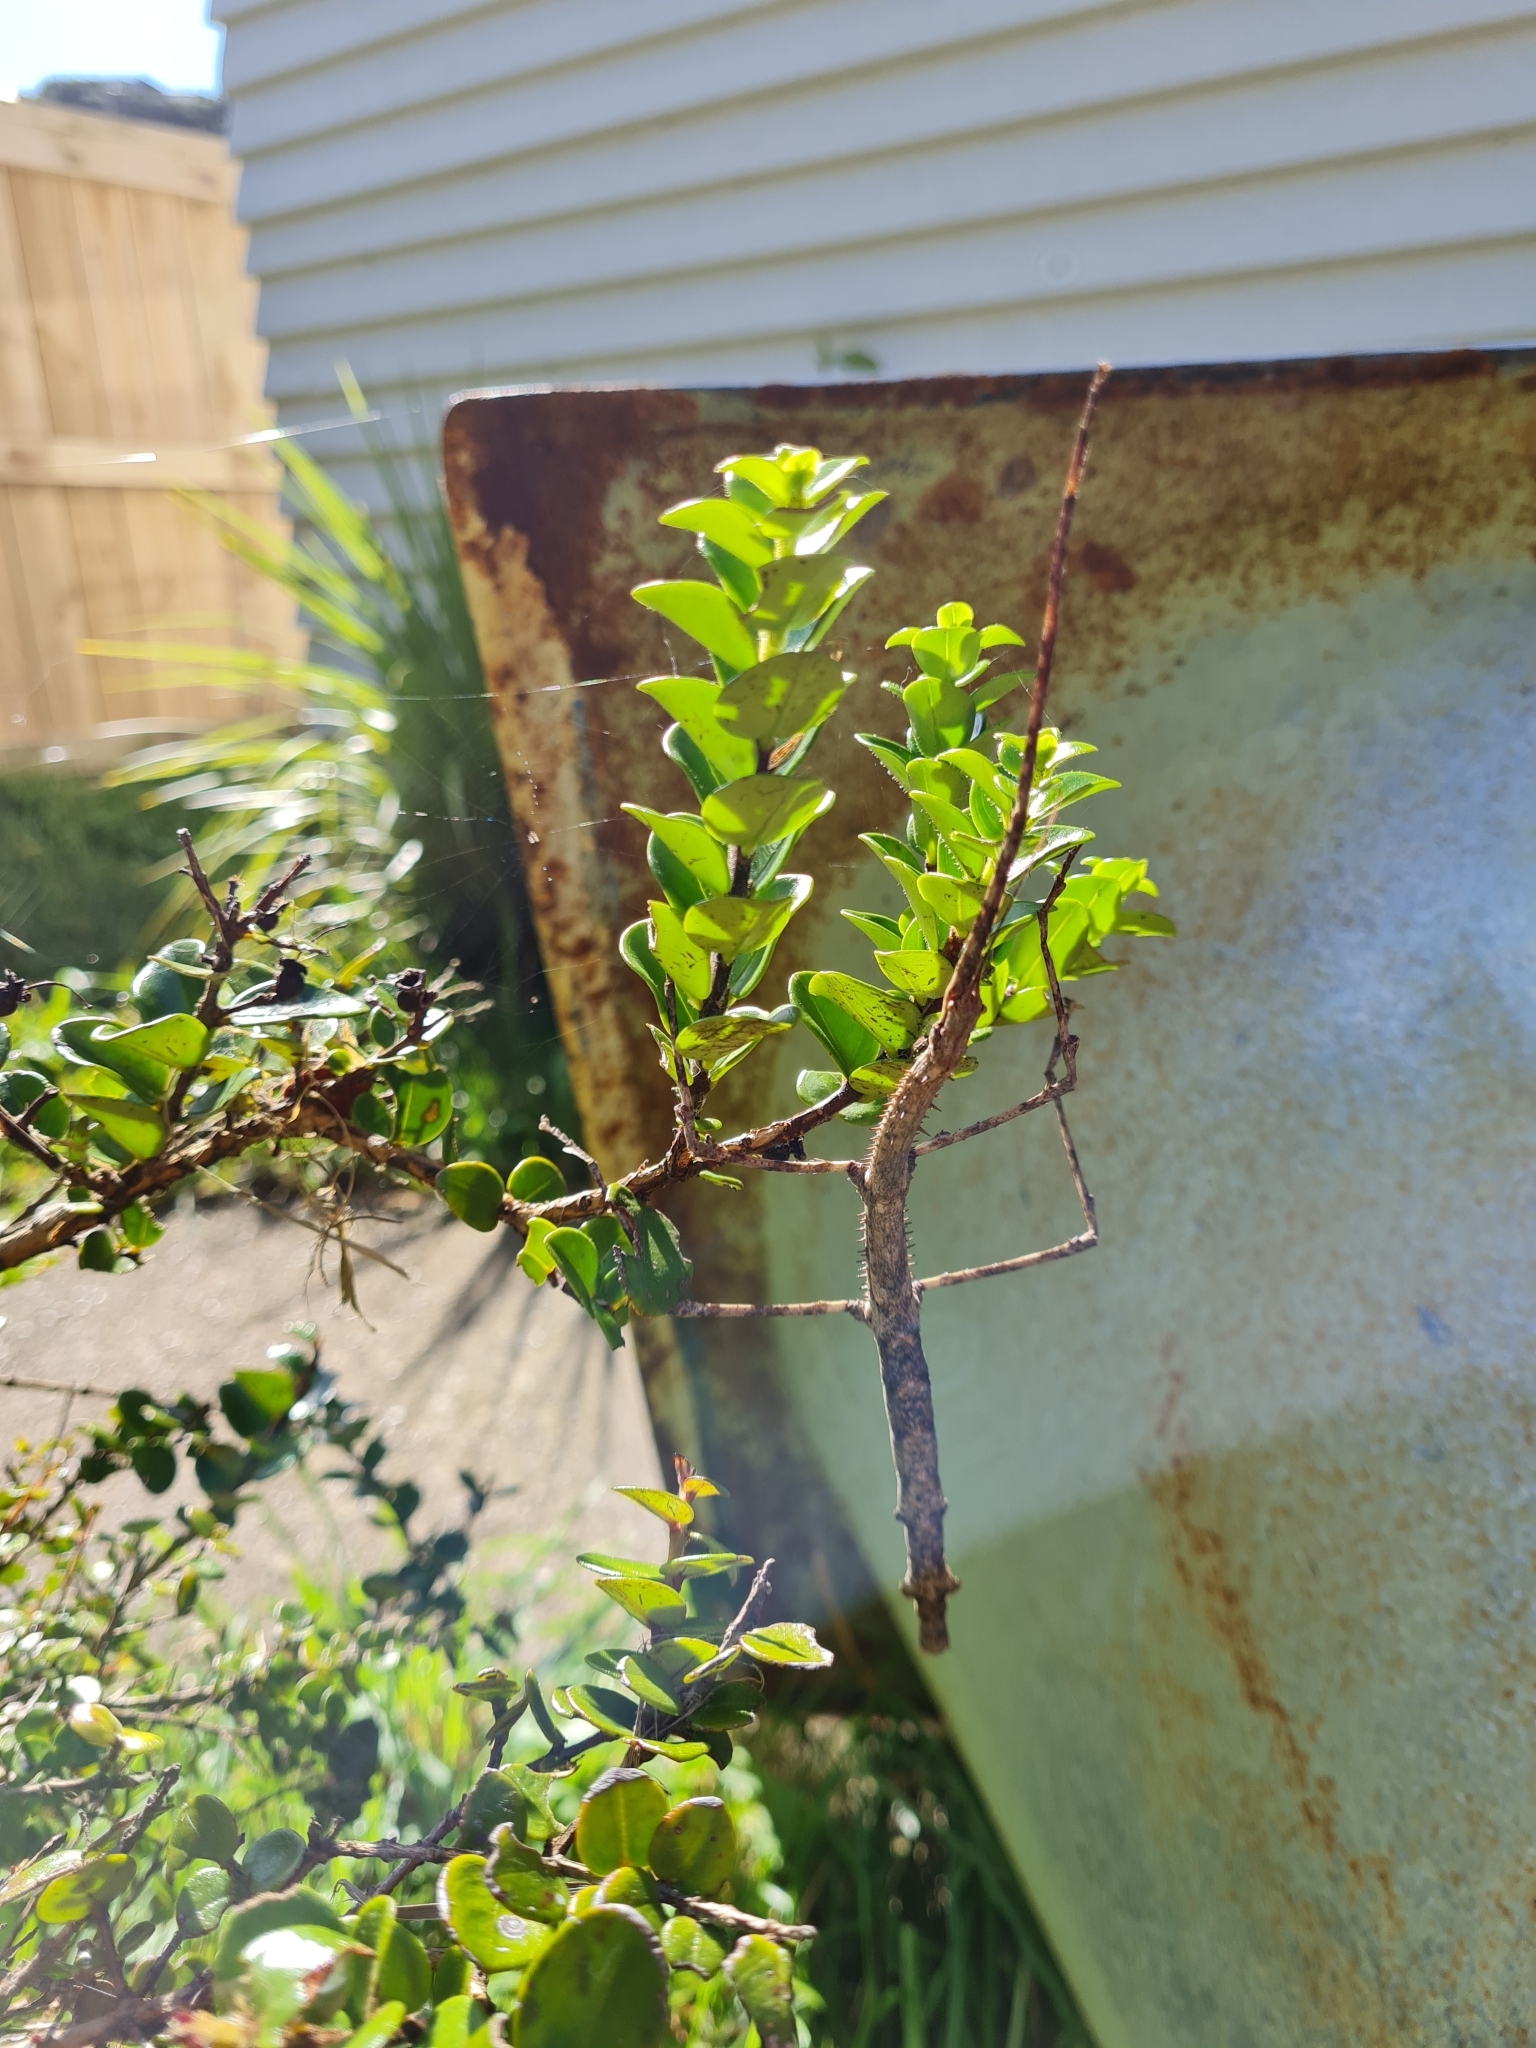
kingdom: Animalia
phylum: Arthropoda
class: Insecta
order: Phasmida
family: Phasmatidae
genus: Argosarchus
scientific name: Argosarchus horridus
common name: Bristly stick insect
